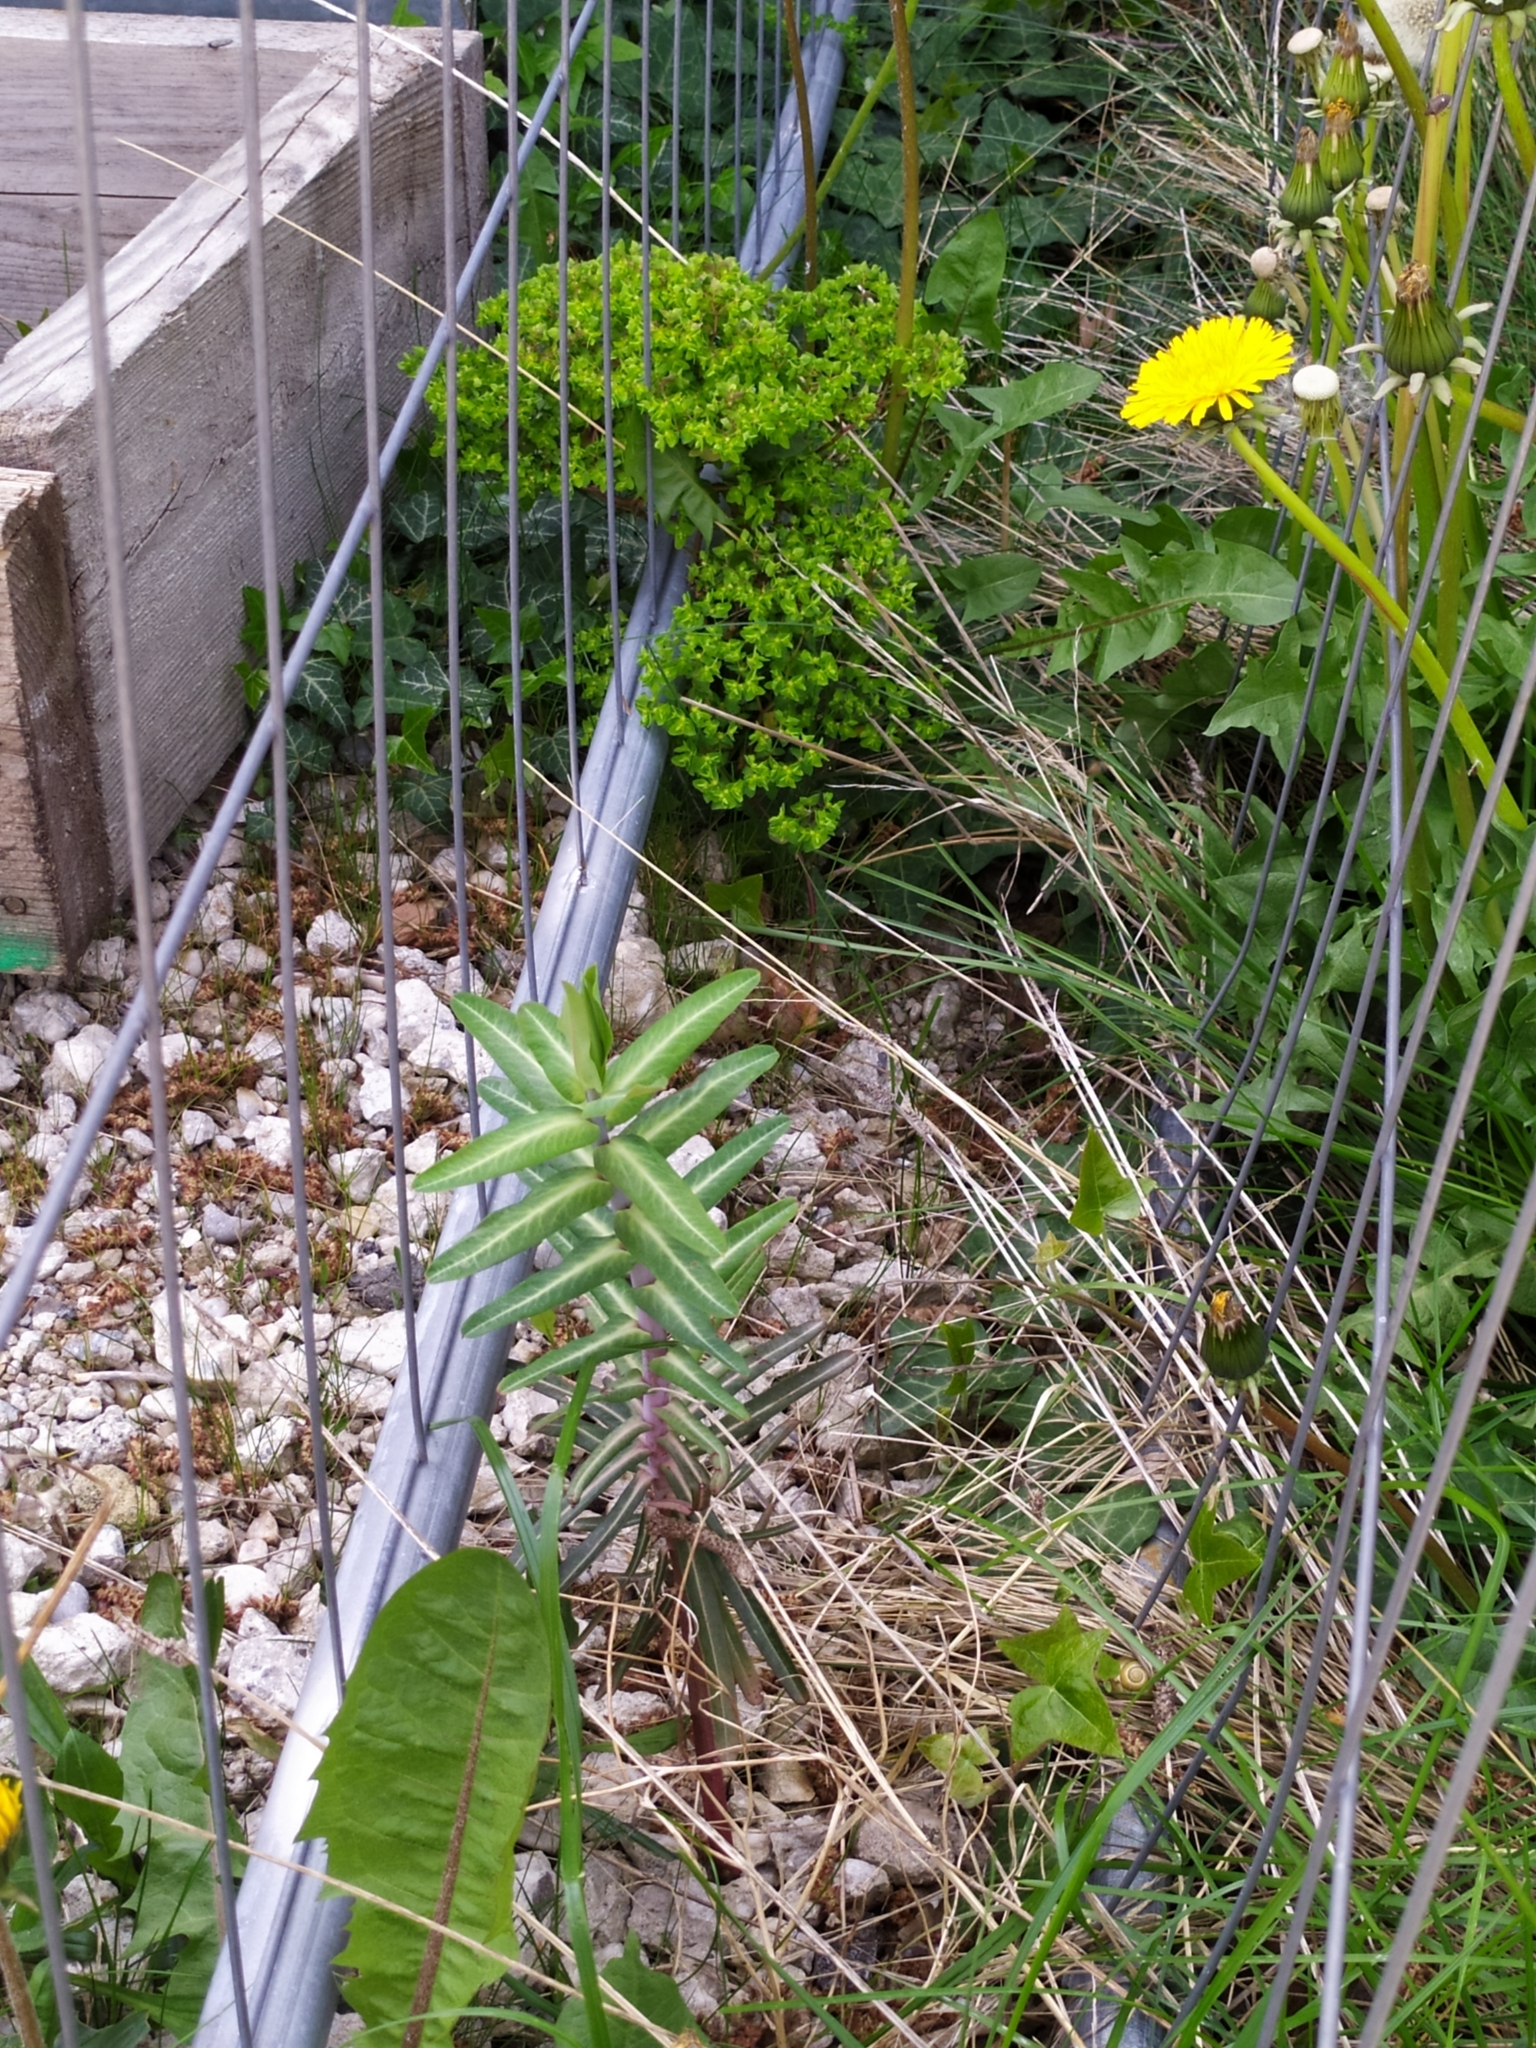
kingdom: Plantae
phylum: Tracheophyta
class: Magnoliopsida
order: Malpighiales
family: Euphorbiaceae
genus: Euphorbia
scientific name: Euphorbia lathyris
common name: Caper spurge
